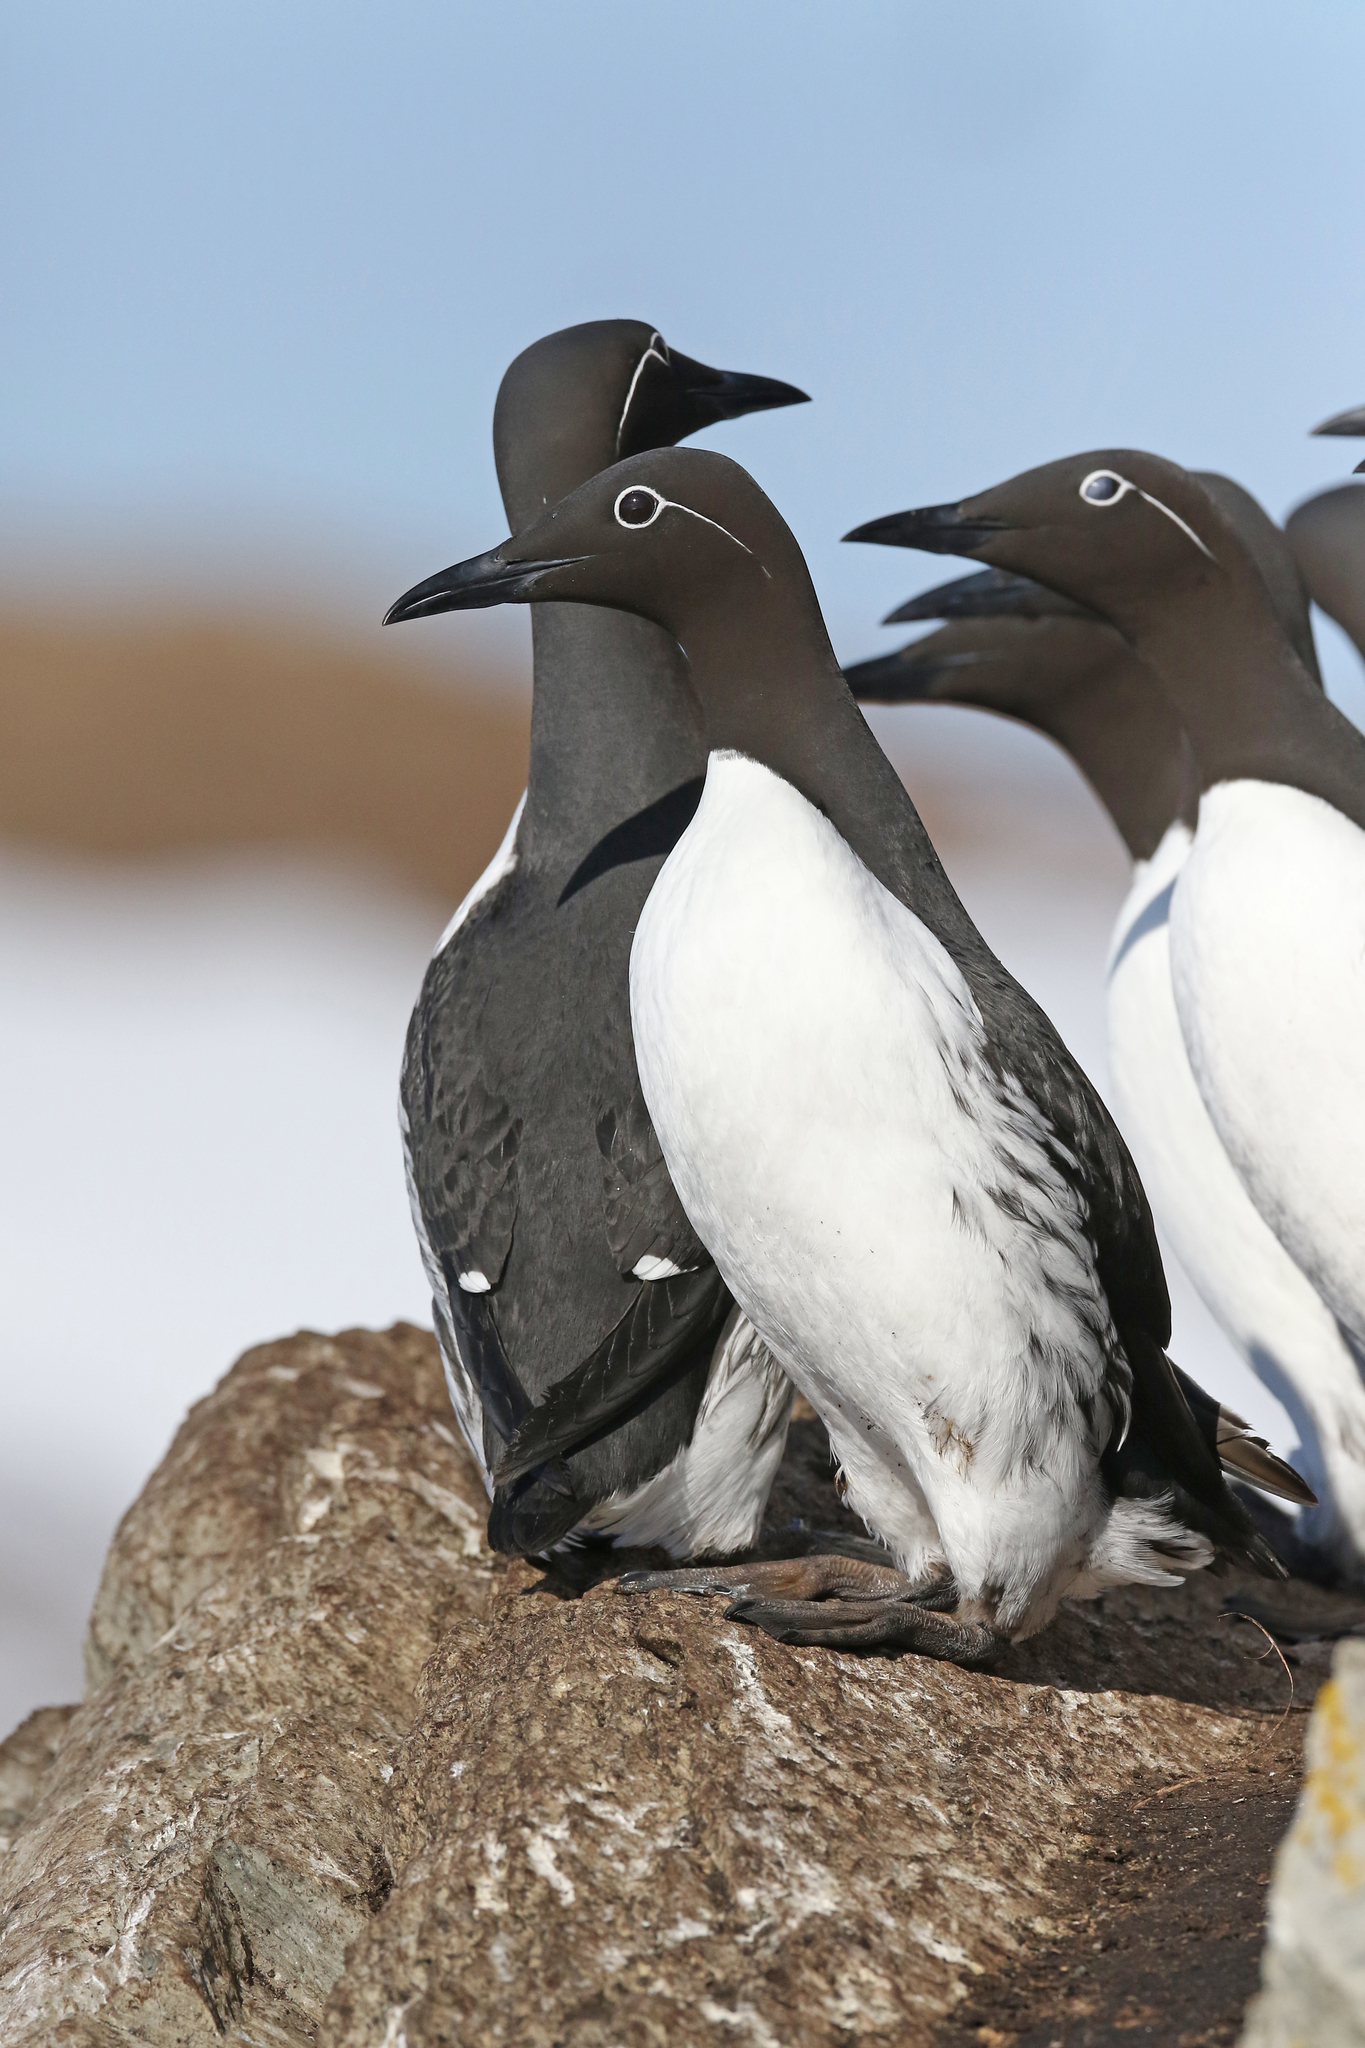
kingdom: Animalia
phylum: Chordata
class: Aves
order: Charadriiformes
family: Alcidae
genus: Uria
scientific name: Uria aalge
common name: Common murre
